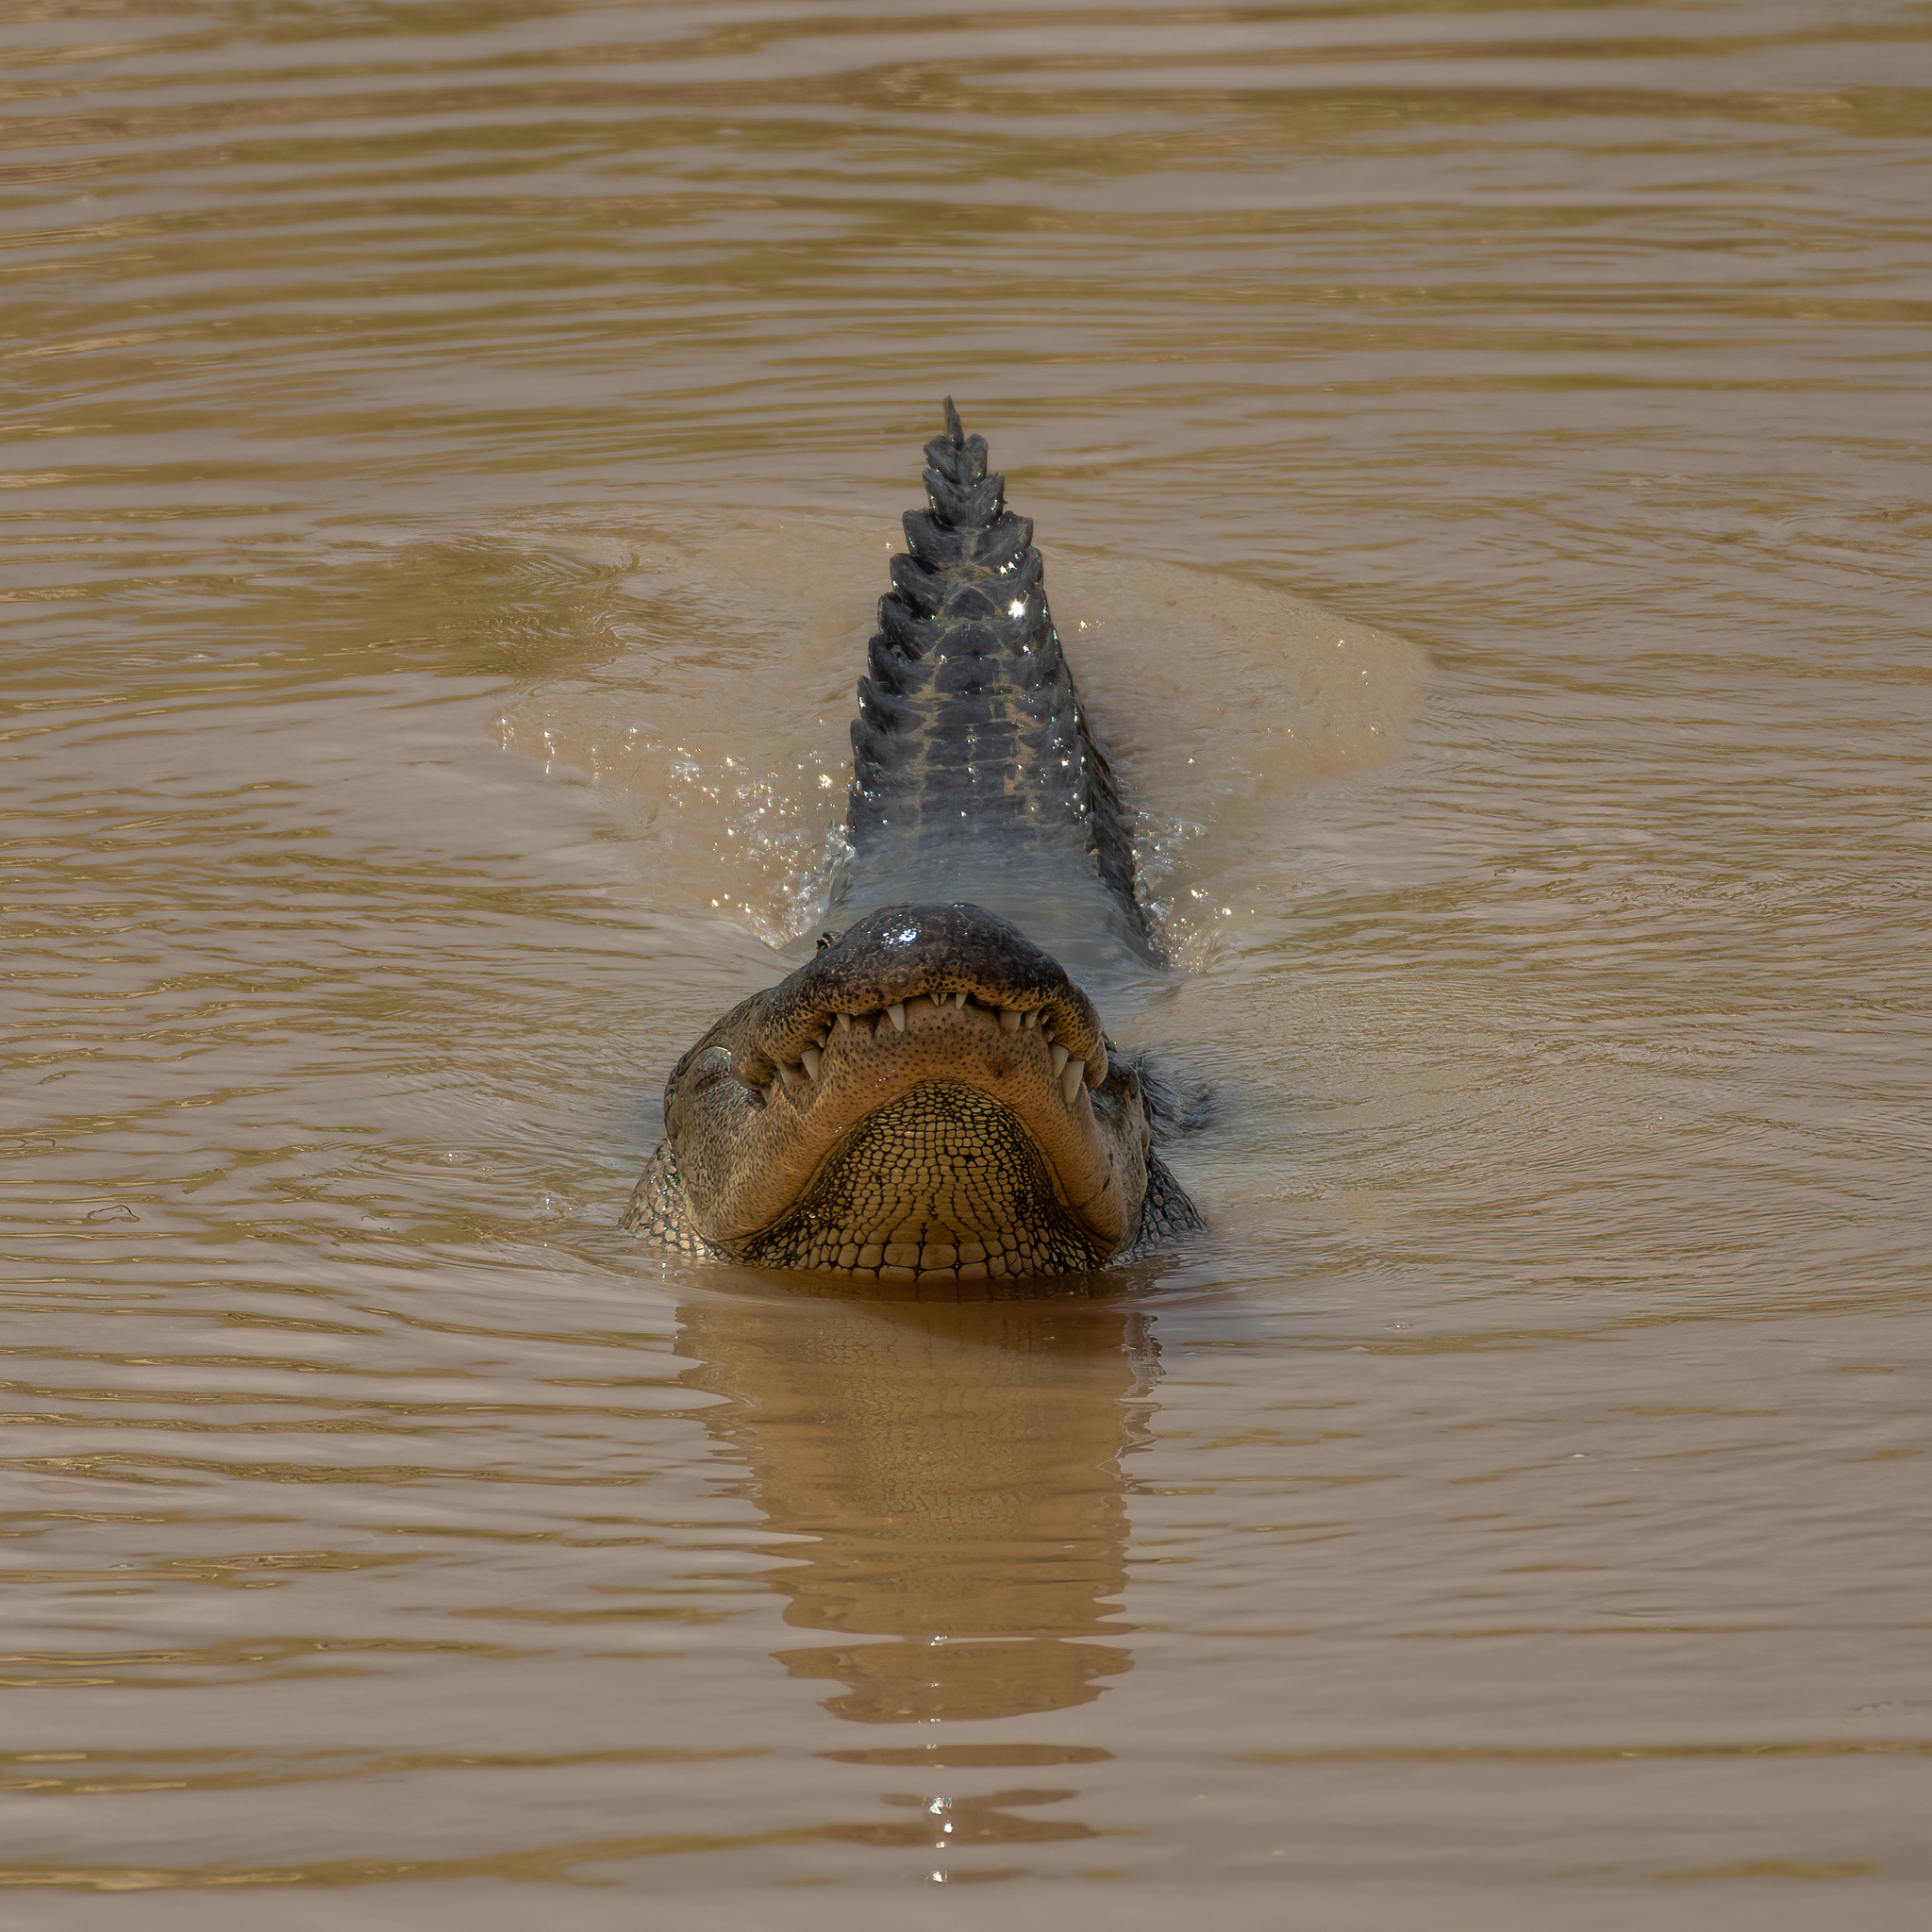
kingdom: Animalia
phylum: Chordata
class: Crocodylia
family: Alligatoridae
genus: Alligator
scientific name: Alligator mississippiensis
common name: American alligator
